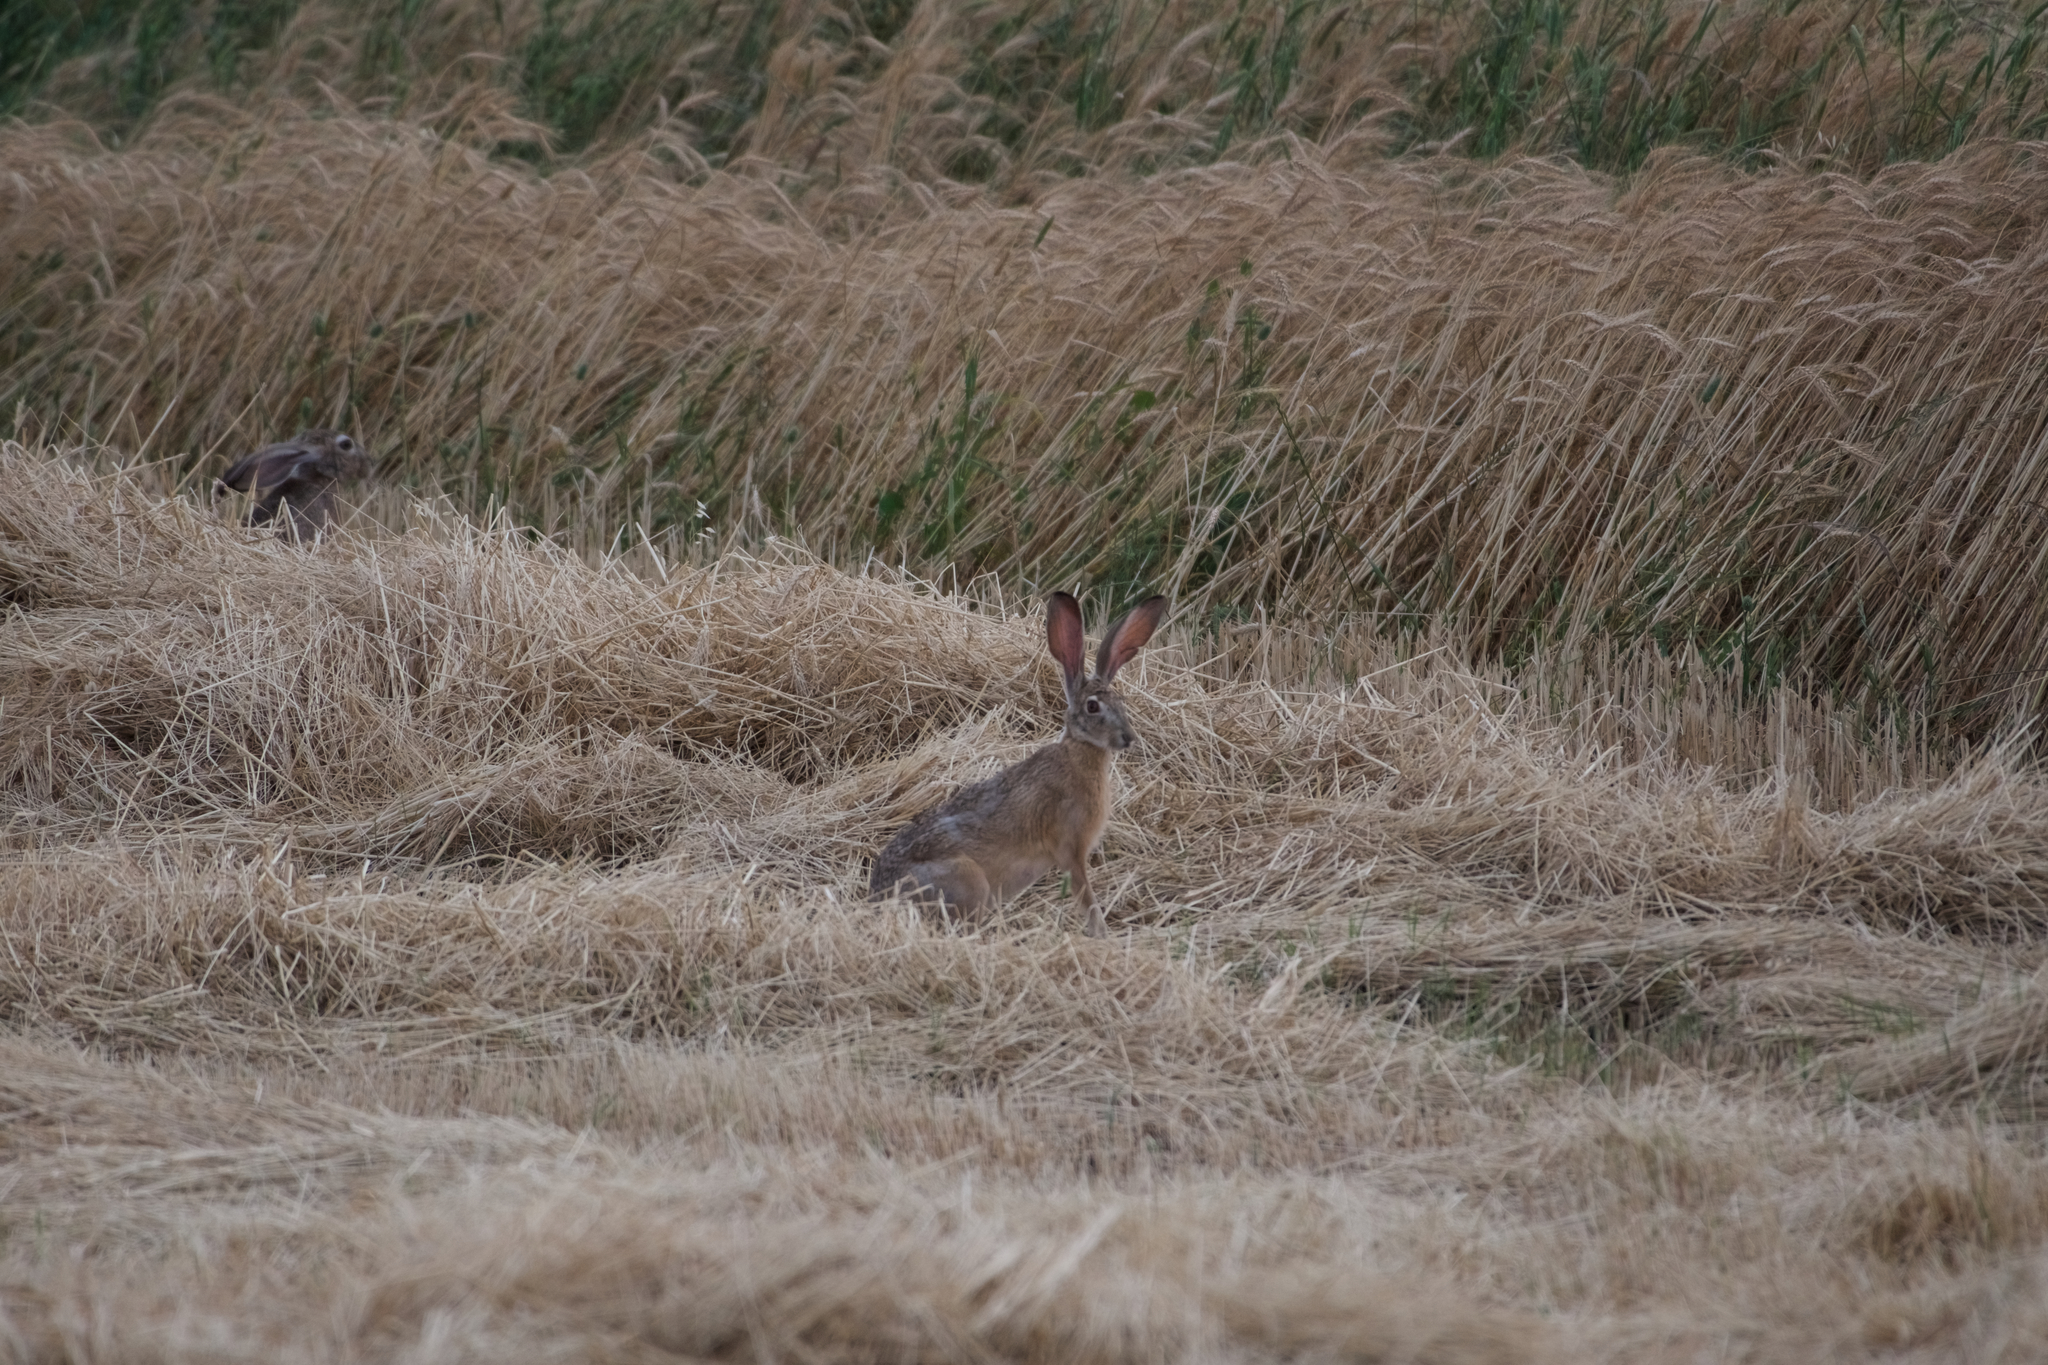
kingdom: Animalia
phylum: Chordata
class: Mammalia
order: Lagomorpha
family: Leporidae
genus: Lepus
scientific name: Lepus californicus
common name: Black-tailed jackrabbit
